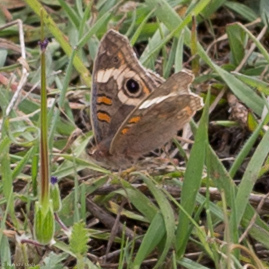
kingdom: Animalia
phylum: Arthropoda
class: Insecta
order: Lepidoptera
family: Nymphalidae
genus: Junonia
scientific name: Junonia grisea
